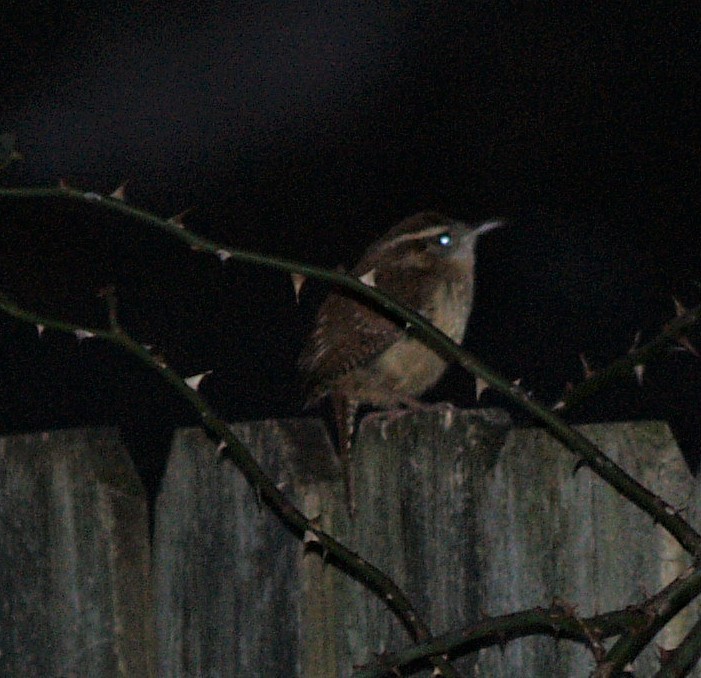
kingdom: Animalia
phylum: Chordata
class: Aves
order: Passeriformes
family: Troglodytidae
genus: Thryothorus
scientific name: Thryothorus ludovicianus
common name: Carolina wren
